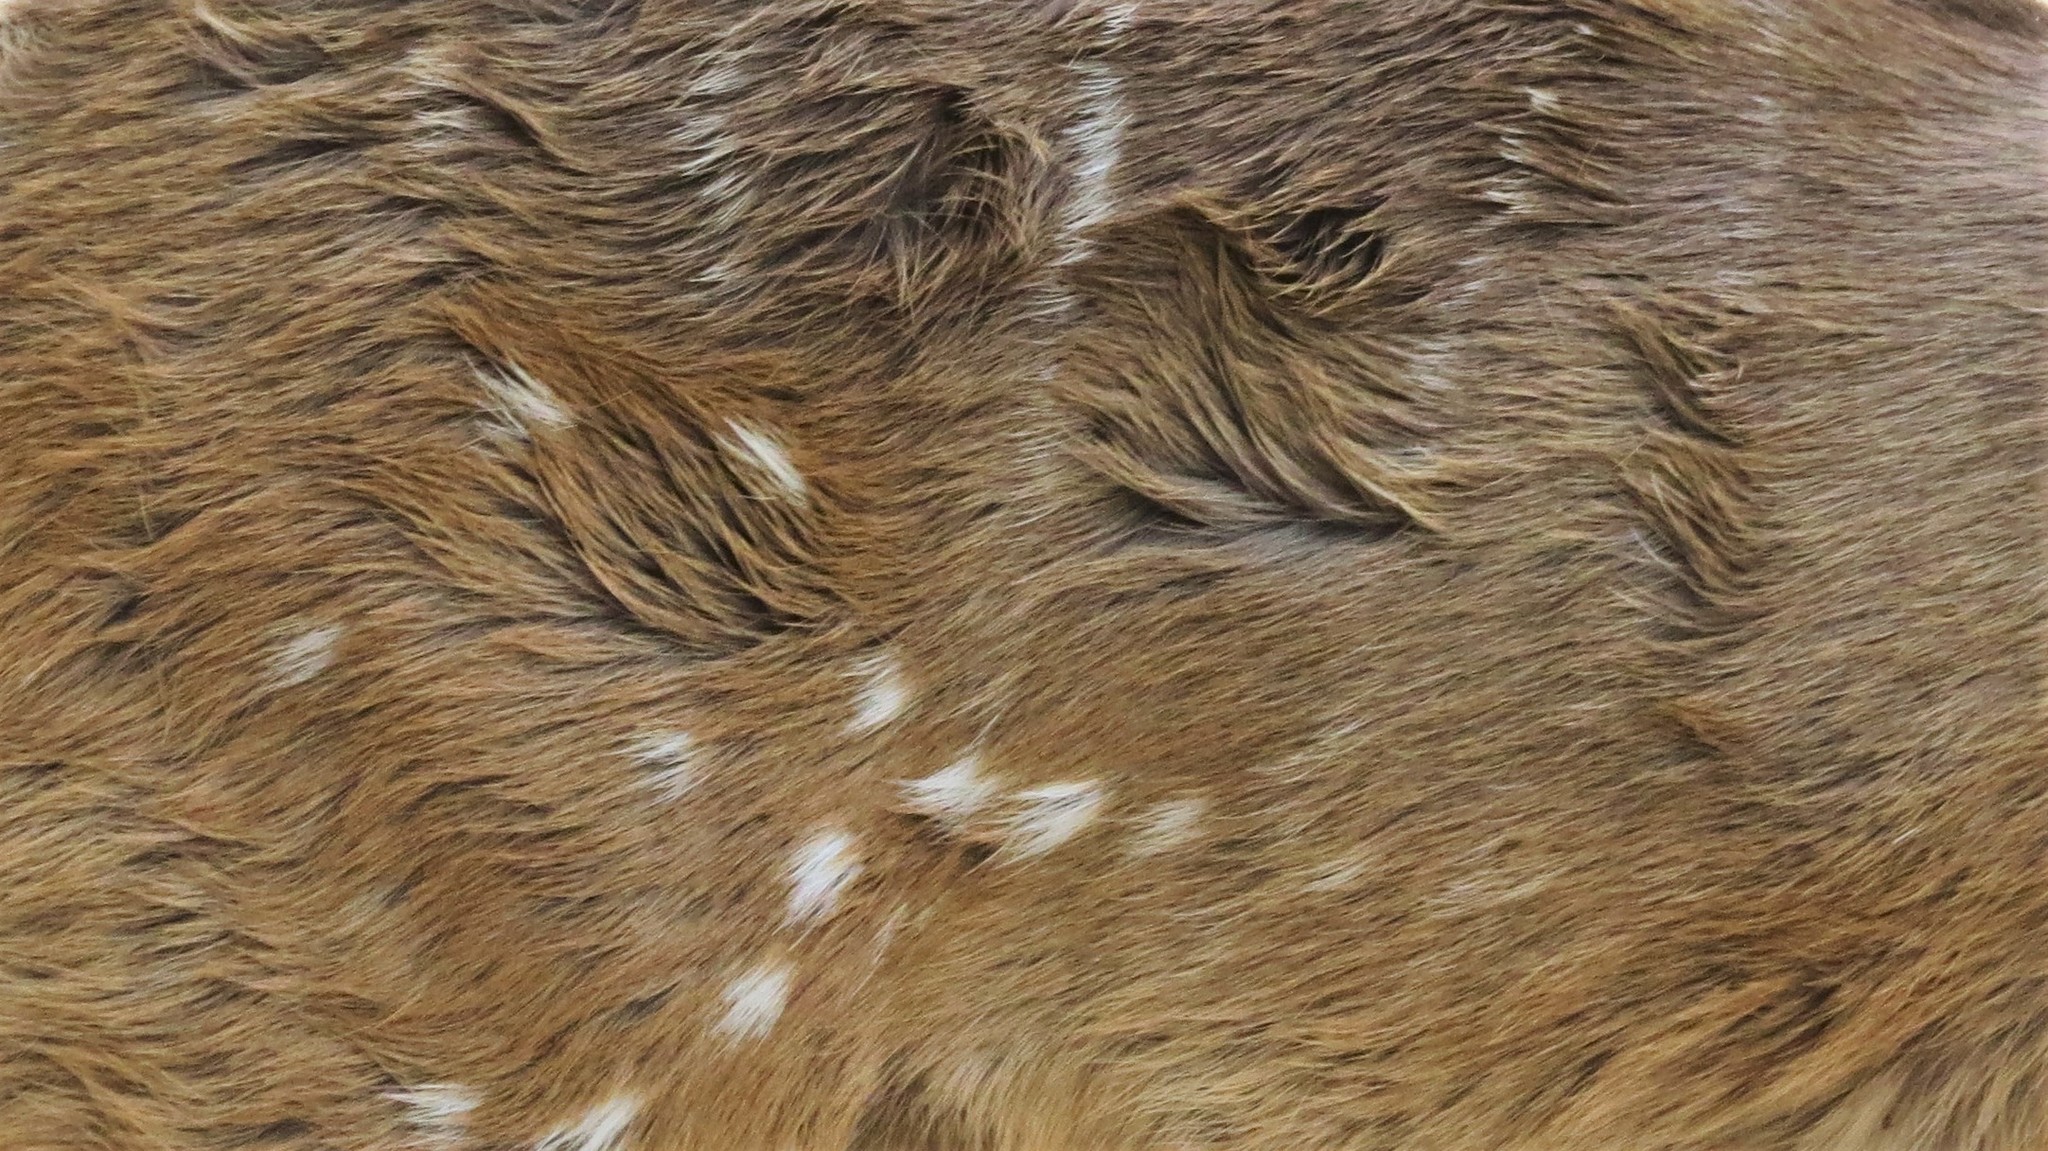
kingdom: Animalia
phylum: Chordata
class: Mammalia
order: Artiodactyla
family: Bovidae
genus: Tragelaphus
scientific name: Tragelaphus scriptus
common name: Bushbuck
